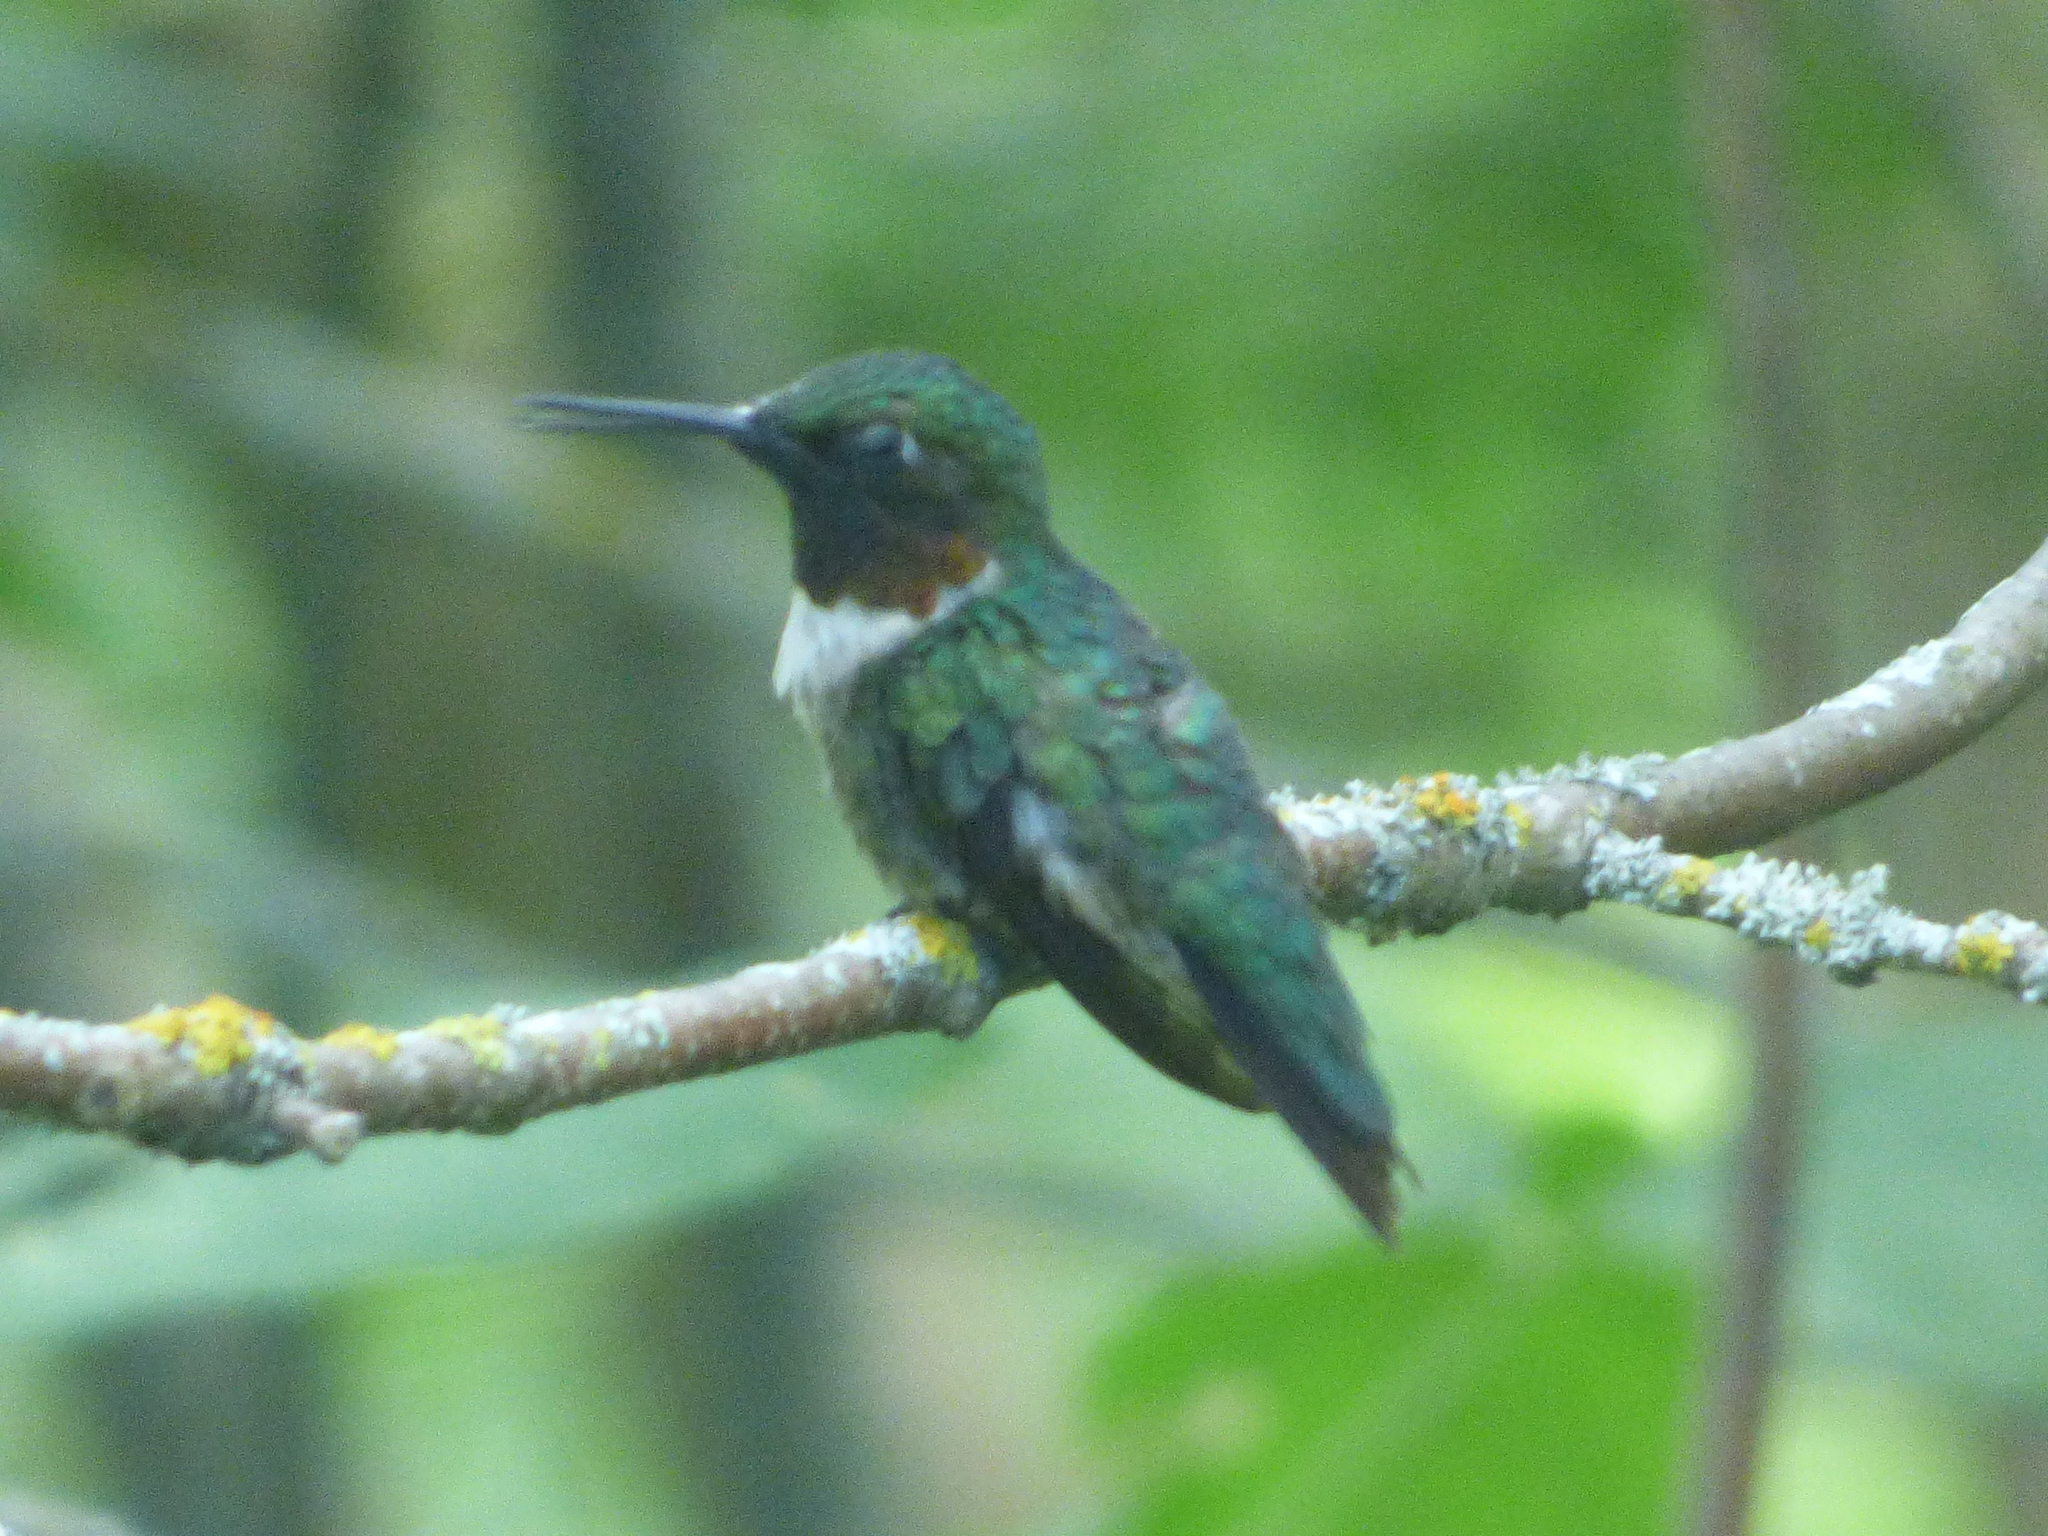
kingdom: Animalia
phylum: Chordata
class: Aves
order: Apodiformes
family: Trochilidae
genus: Archilochus
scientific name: Archilochus colubris
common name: Ruby-throated hummingbird
